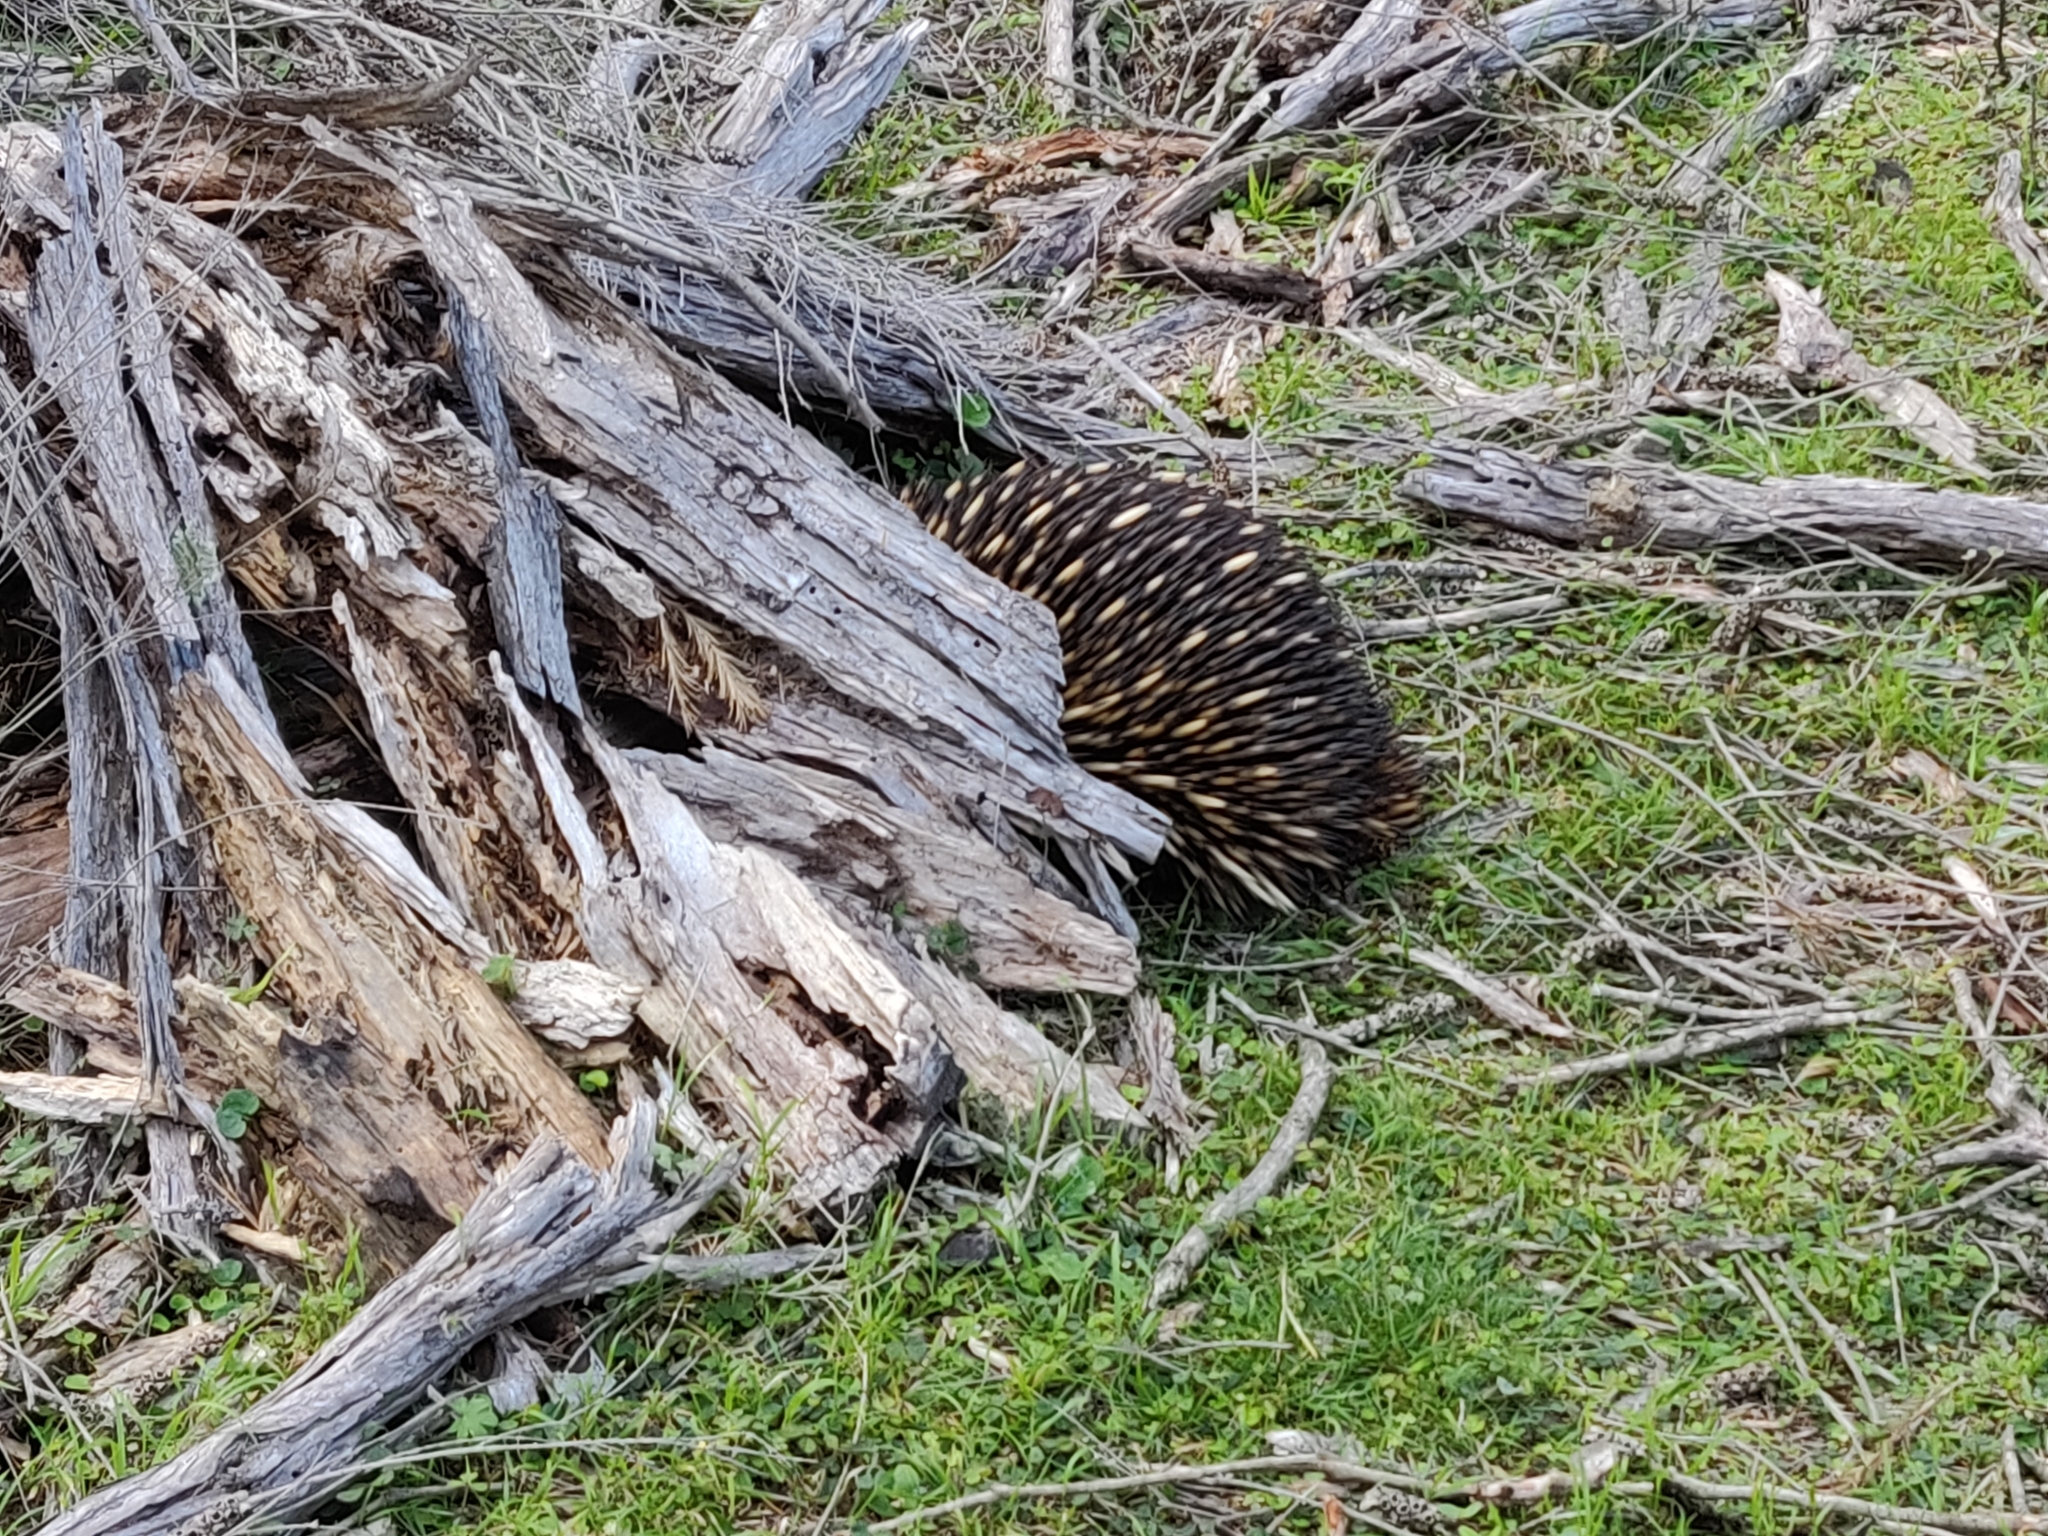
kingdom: Animalia
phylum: Chordata
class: Mammalia
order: Monotremata
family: Tachyglossidae
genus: Tachyglossus
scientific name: Tachyglossus aculeatus
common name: Short-beaked echidna
